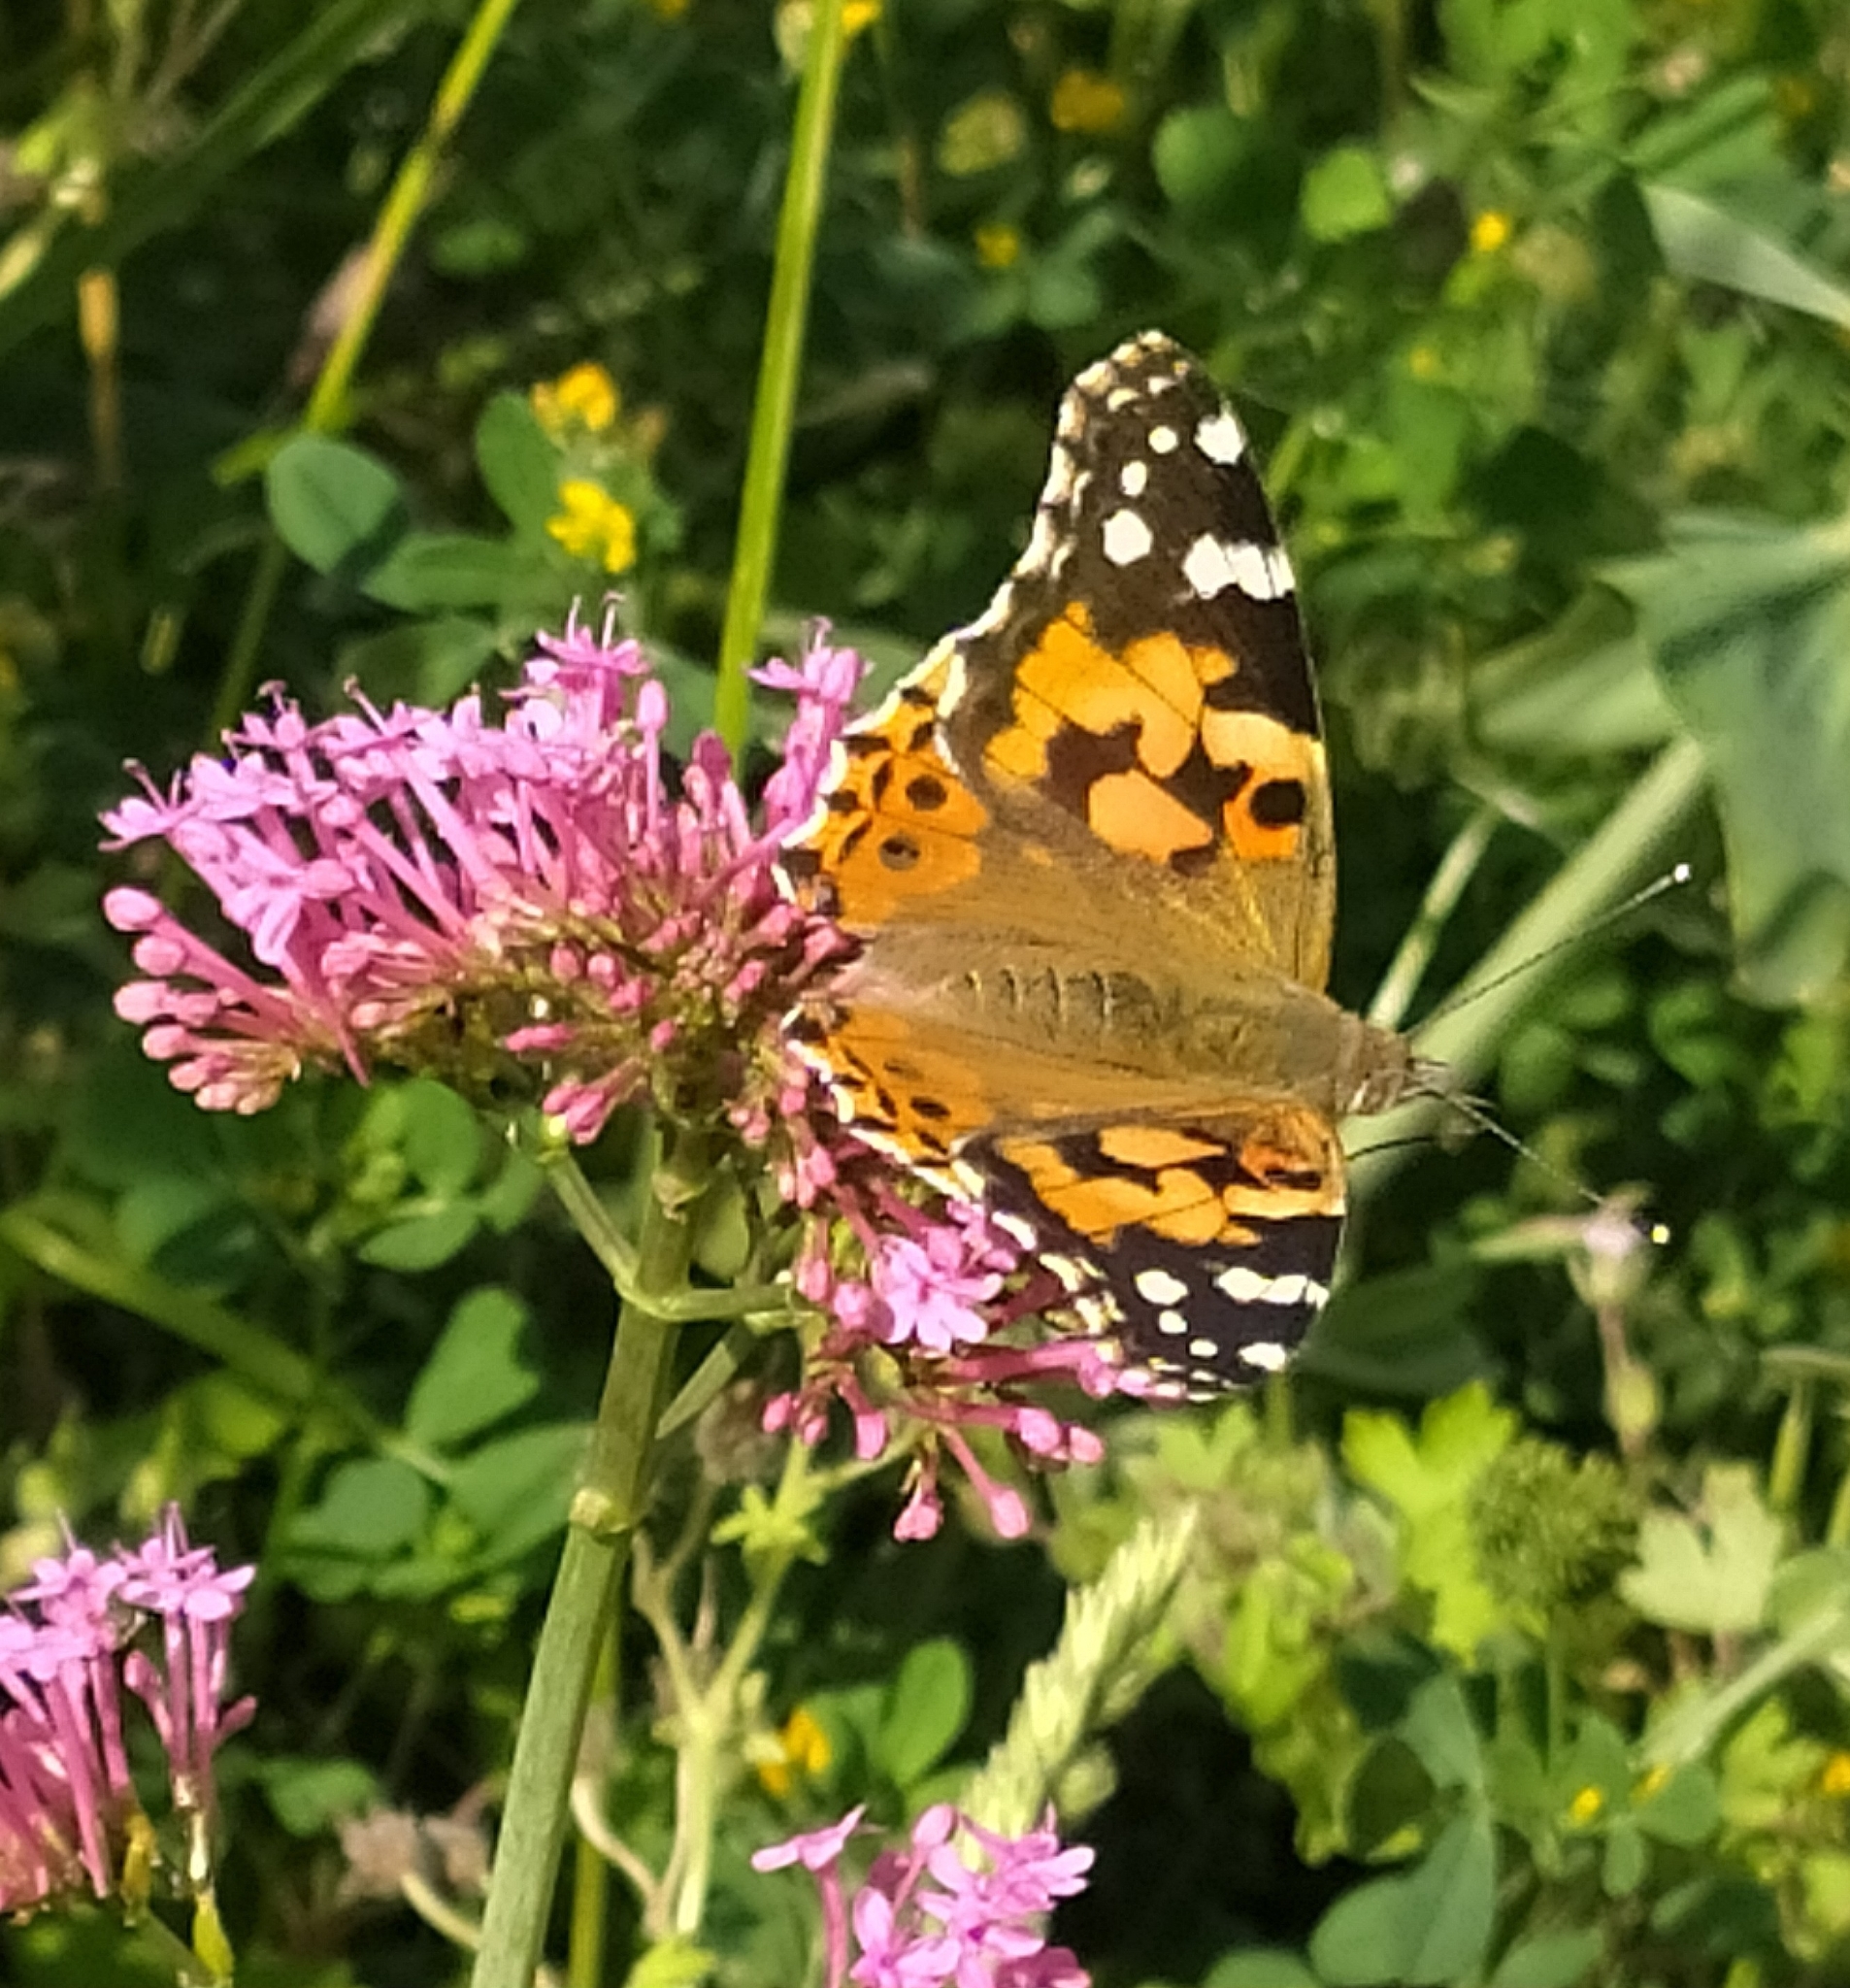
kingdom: Animalia
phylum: Arthropoda
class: Insecta
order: Lepidoptera
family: Nymphalidae
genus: Vanessa
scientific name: Vanessa cardui
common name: Painted lady
